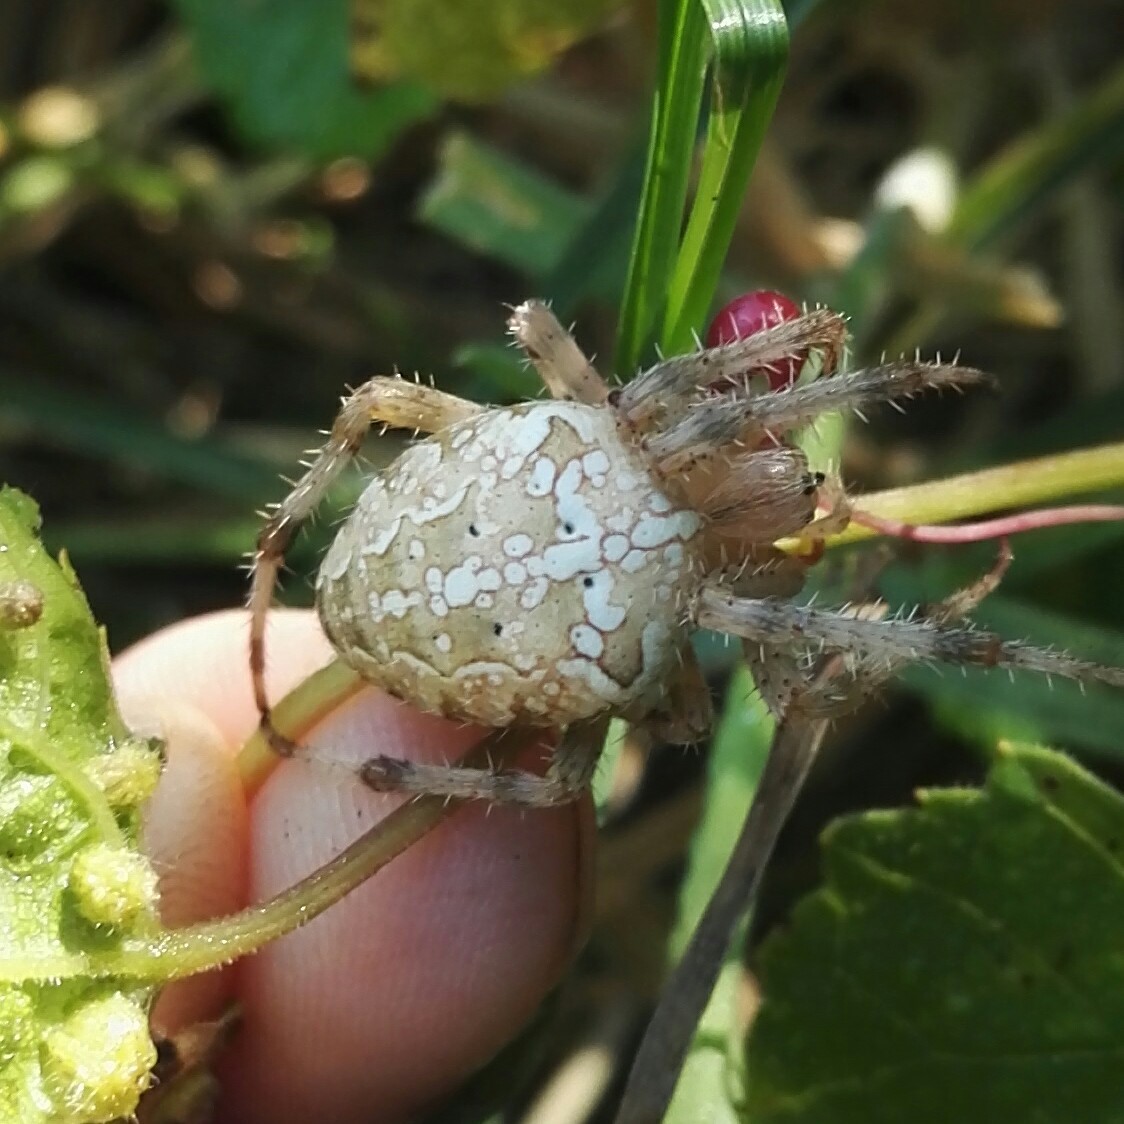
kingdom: Animalia
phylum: Arthropoda
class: Arachnida
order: Araneae
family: Araneidae
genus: Araneus
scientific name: Araneus diadematus
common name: Cross orbweaver
